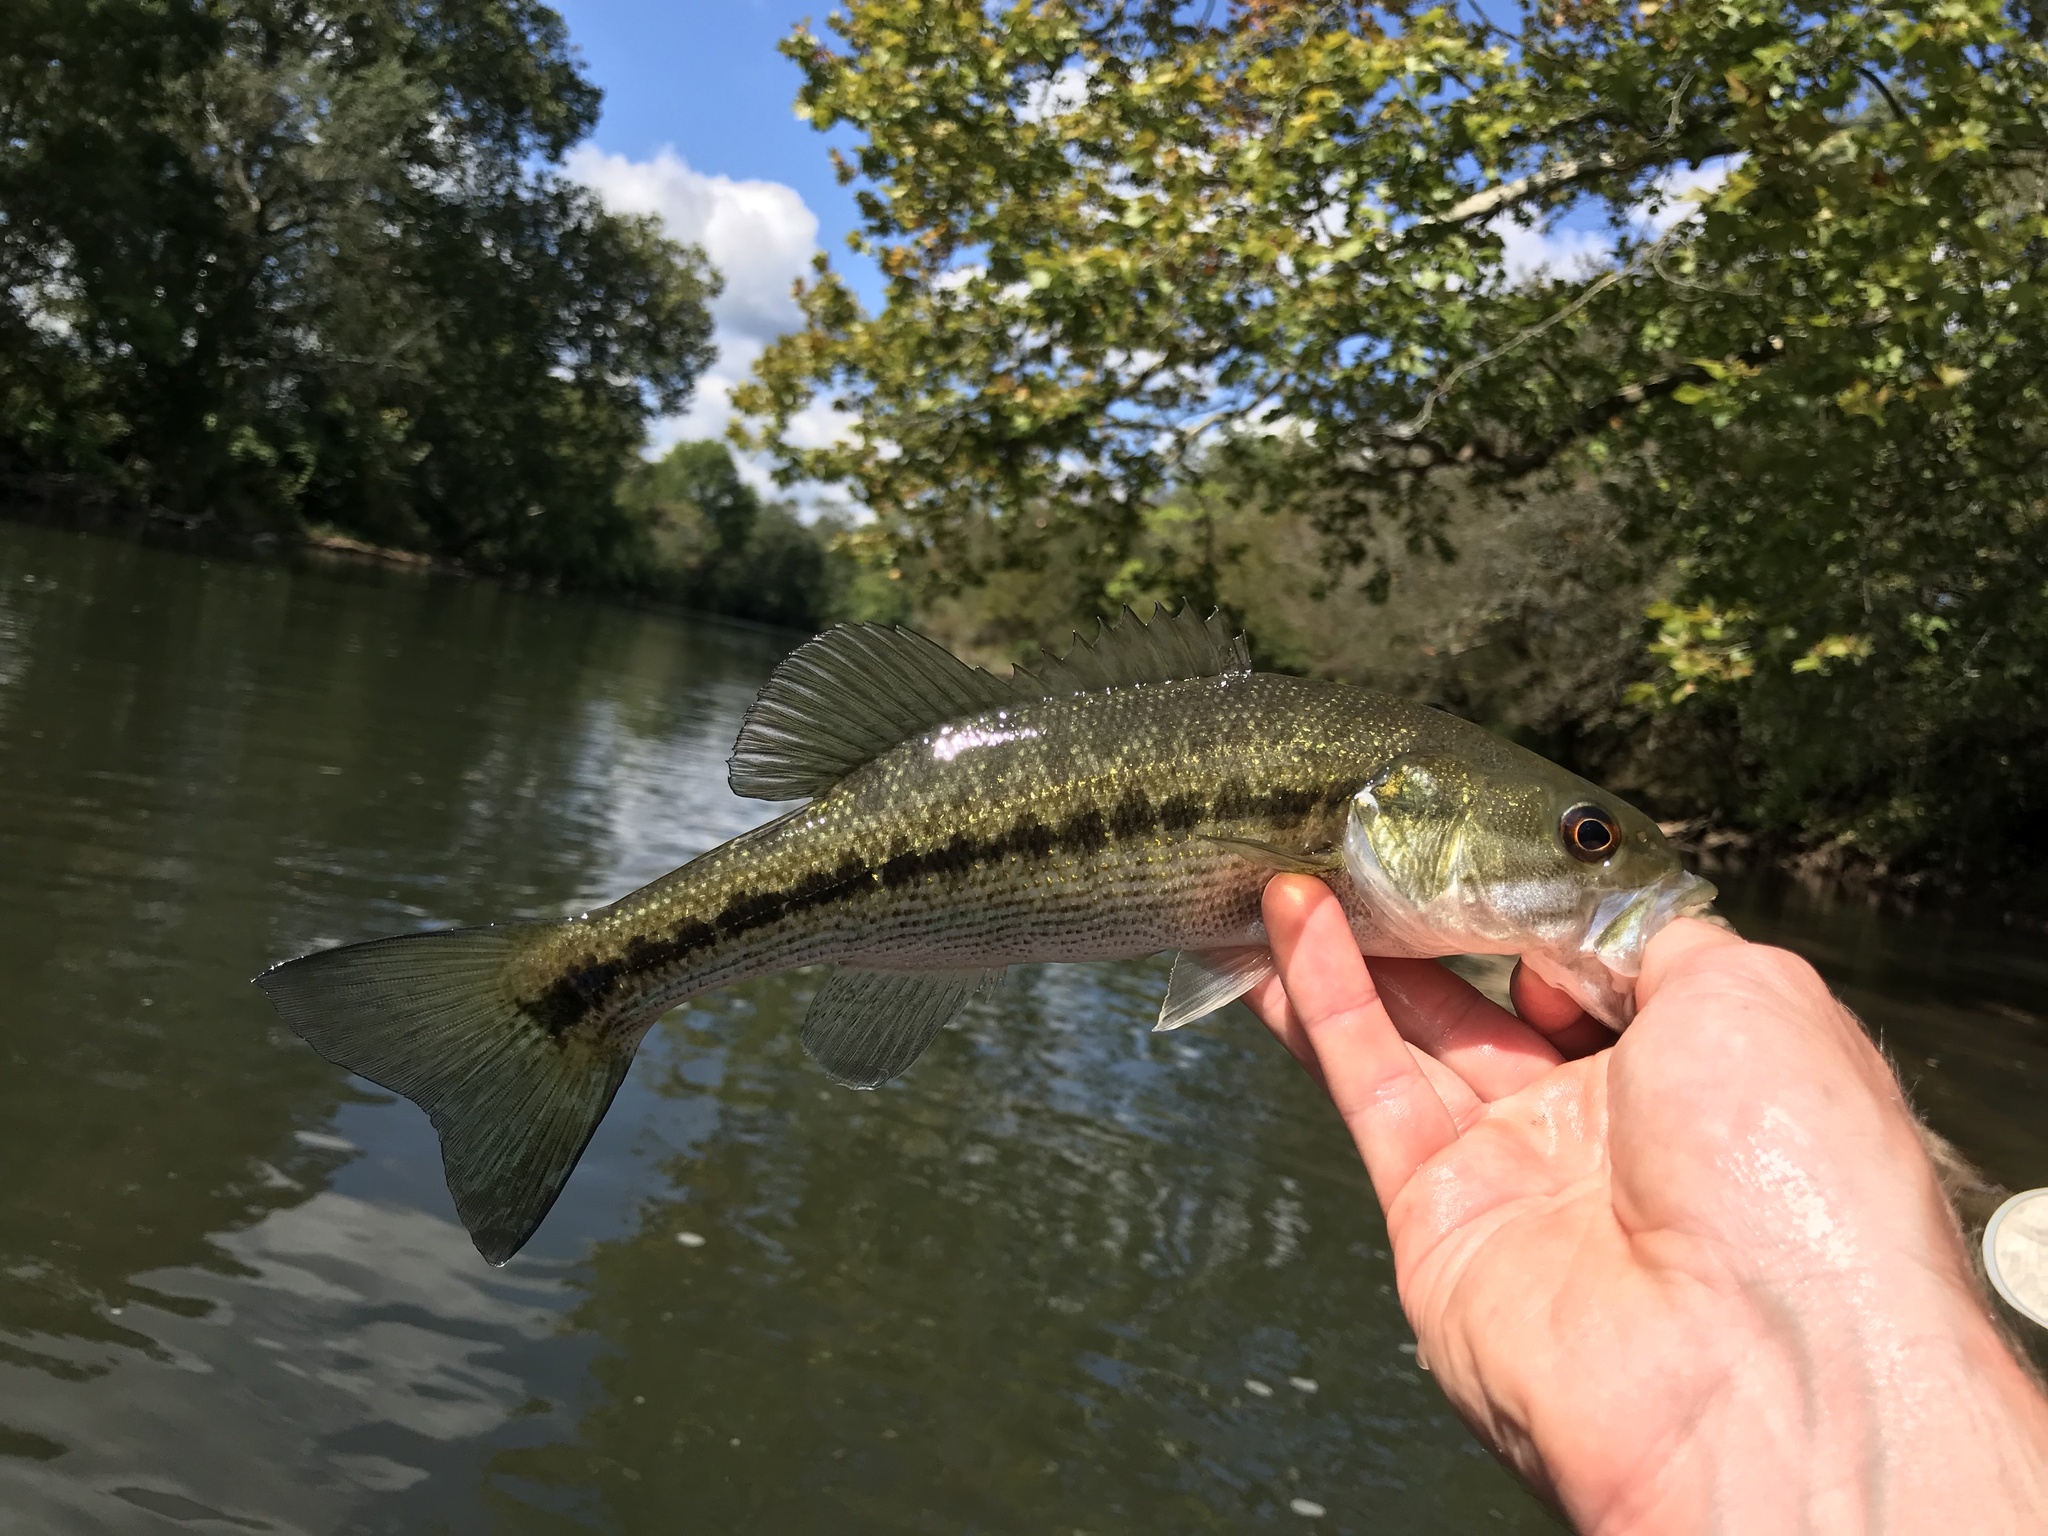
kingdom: Animalia
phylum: Chordata
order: Perciformes
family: Centrarchidae
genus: Micropterus
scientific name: Micropterus punctulatus
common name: Spotted bass
